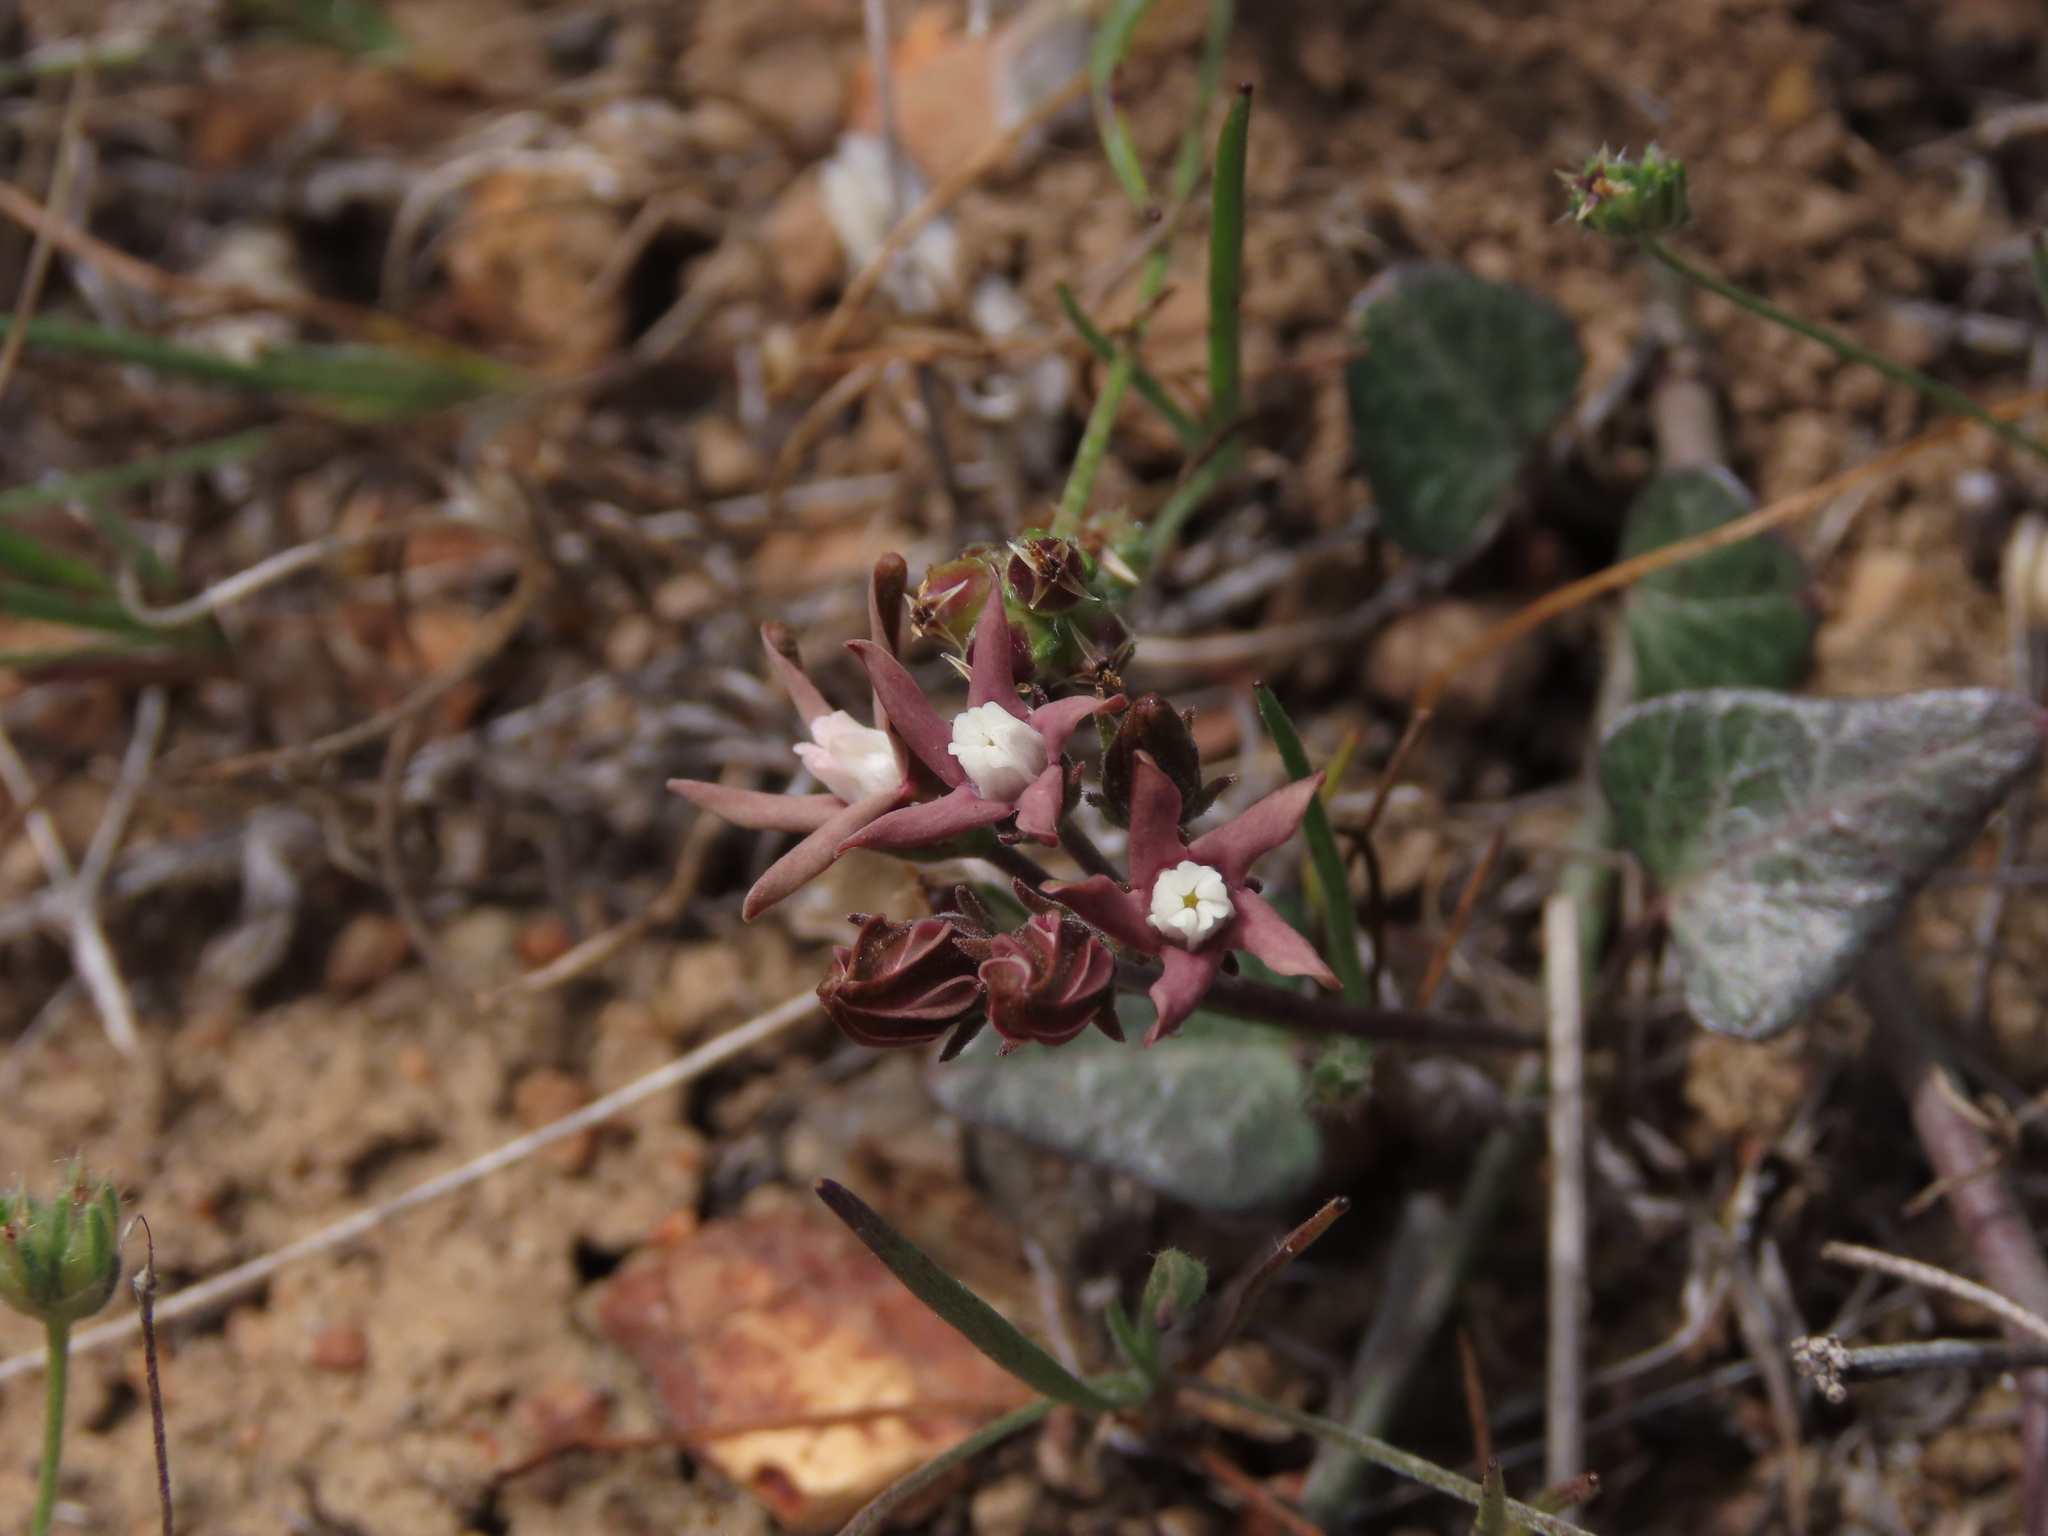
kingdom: Plantae
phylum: Tracheophyta
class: Magnoliopsida
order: Gentianales
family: Apocynaceae
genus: Tweedia
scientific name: Tweedia birostrata
